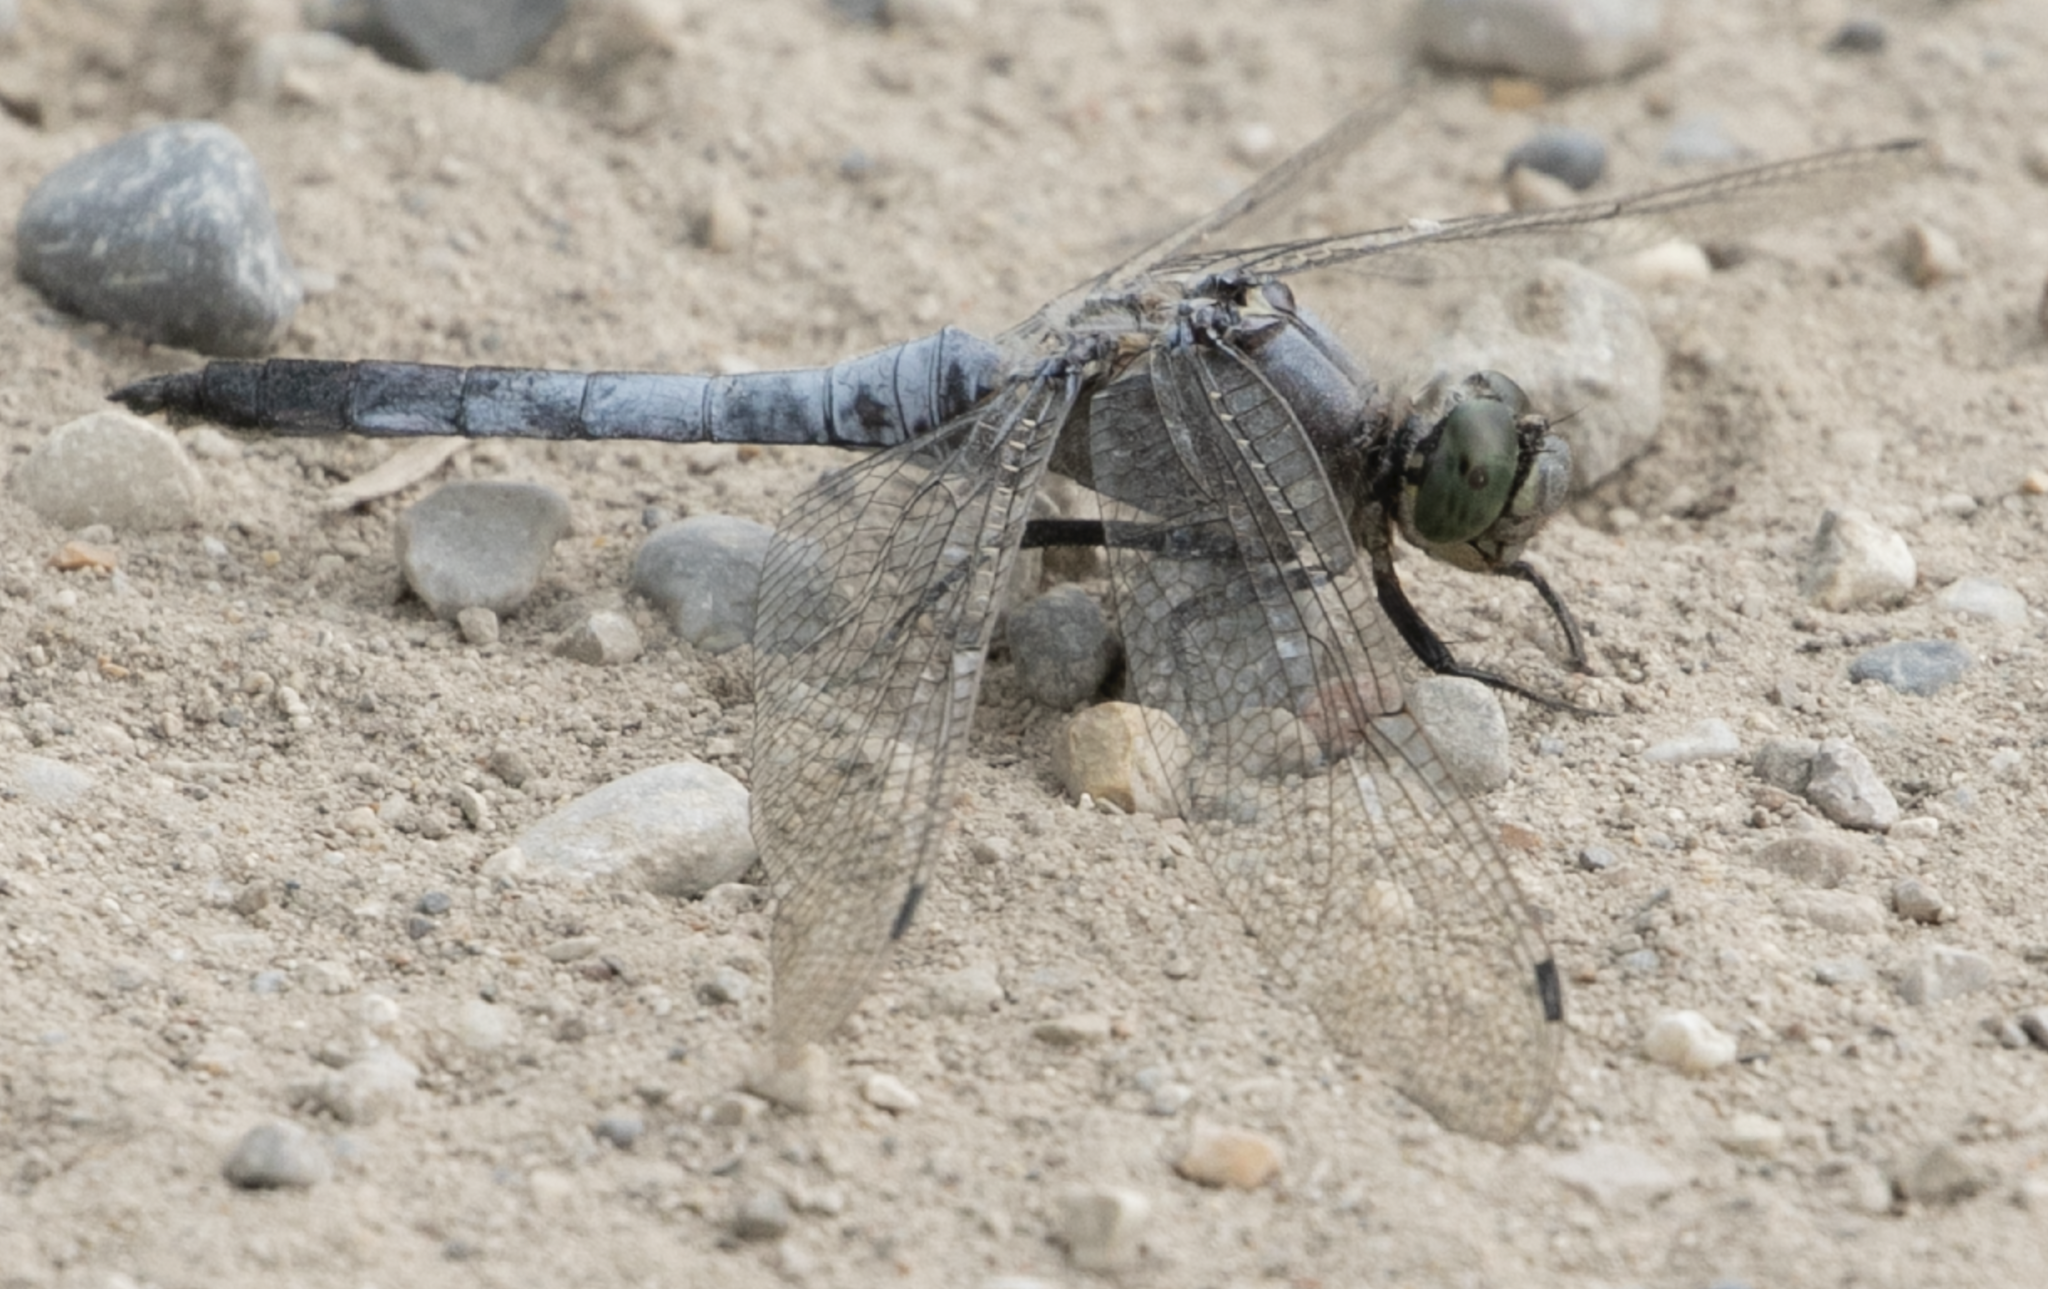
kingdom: Animalia
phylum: Arthropoda
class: Insecta
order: Odonata
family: Libellulidae
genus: Orthetrum
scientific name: Orthetrum cancellatum
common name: Black-tailed skimmer
